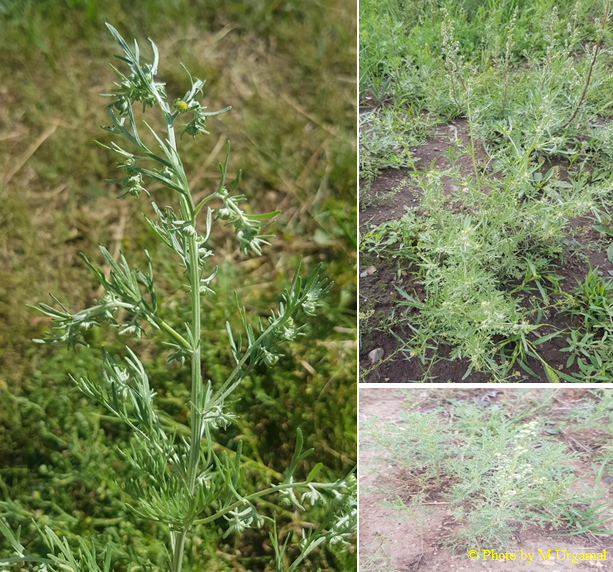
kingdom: Plantae
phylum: Tracheophyta
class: Magnoliopsida
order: Asterales
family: Asteraceae
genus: Artemisia
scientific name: Artemisia sieversiana
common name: Sieversian wormwood
